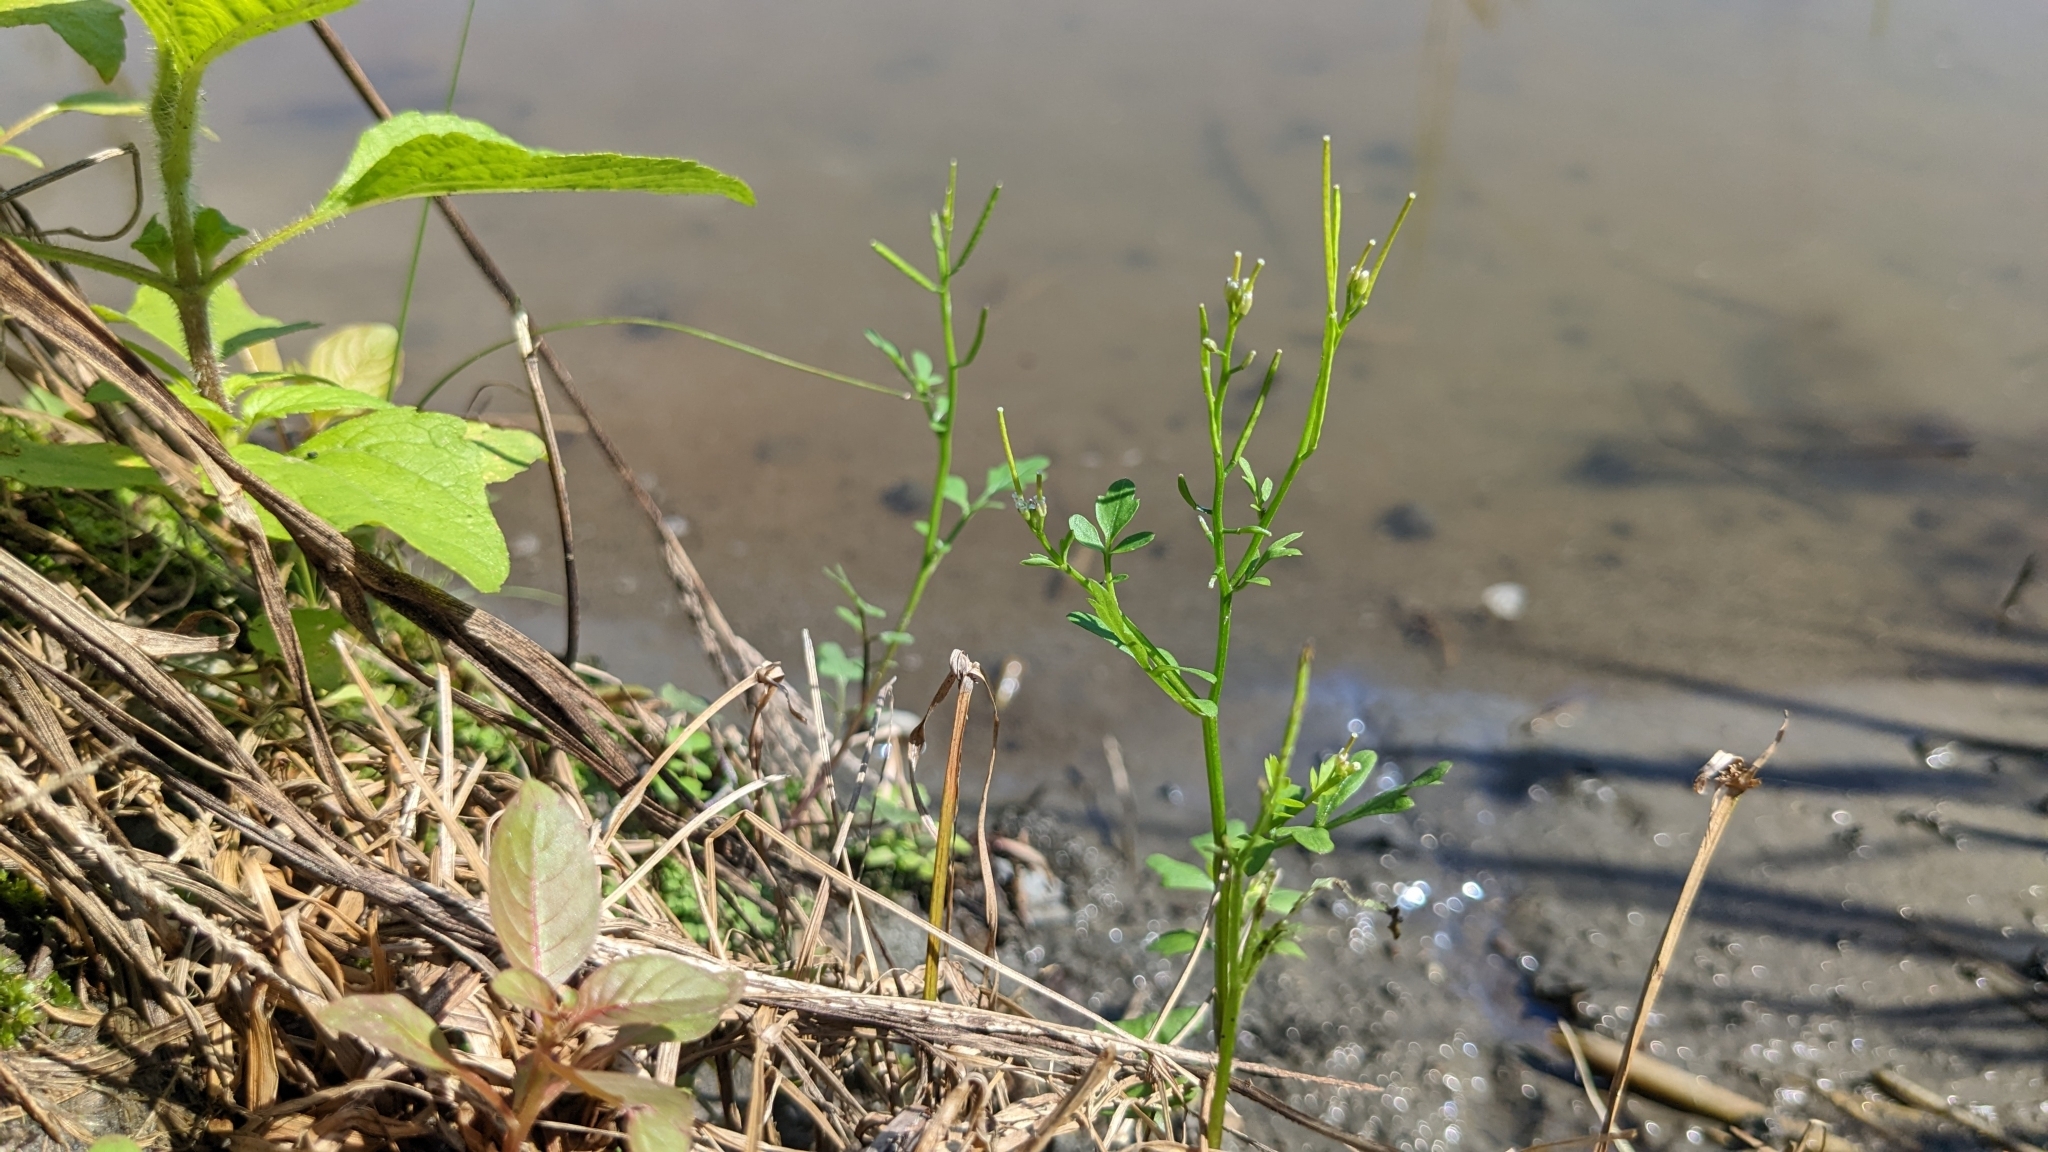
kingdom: Plantae
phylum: Tracheophyta
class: Magnoliopsida
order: Brassicales
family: Brassicaceae
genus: Cardamine
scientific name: Cardamine flexuosa
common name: Woodland bittercress
